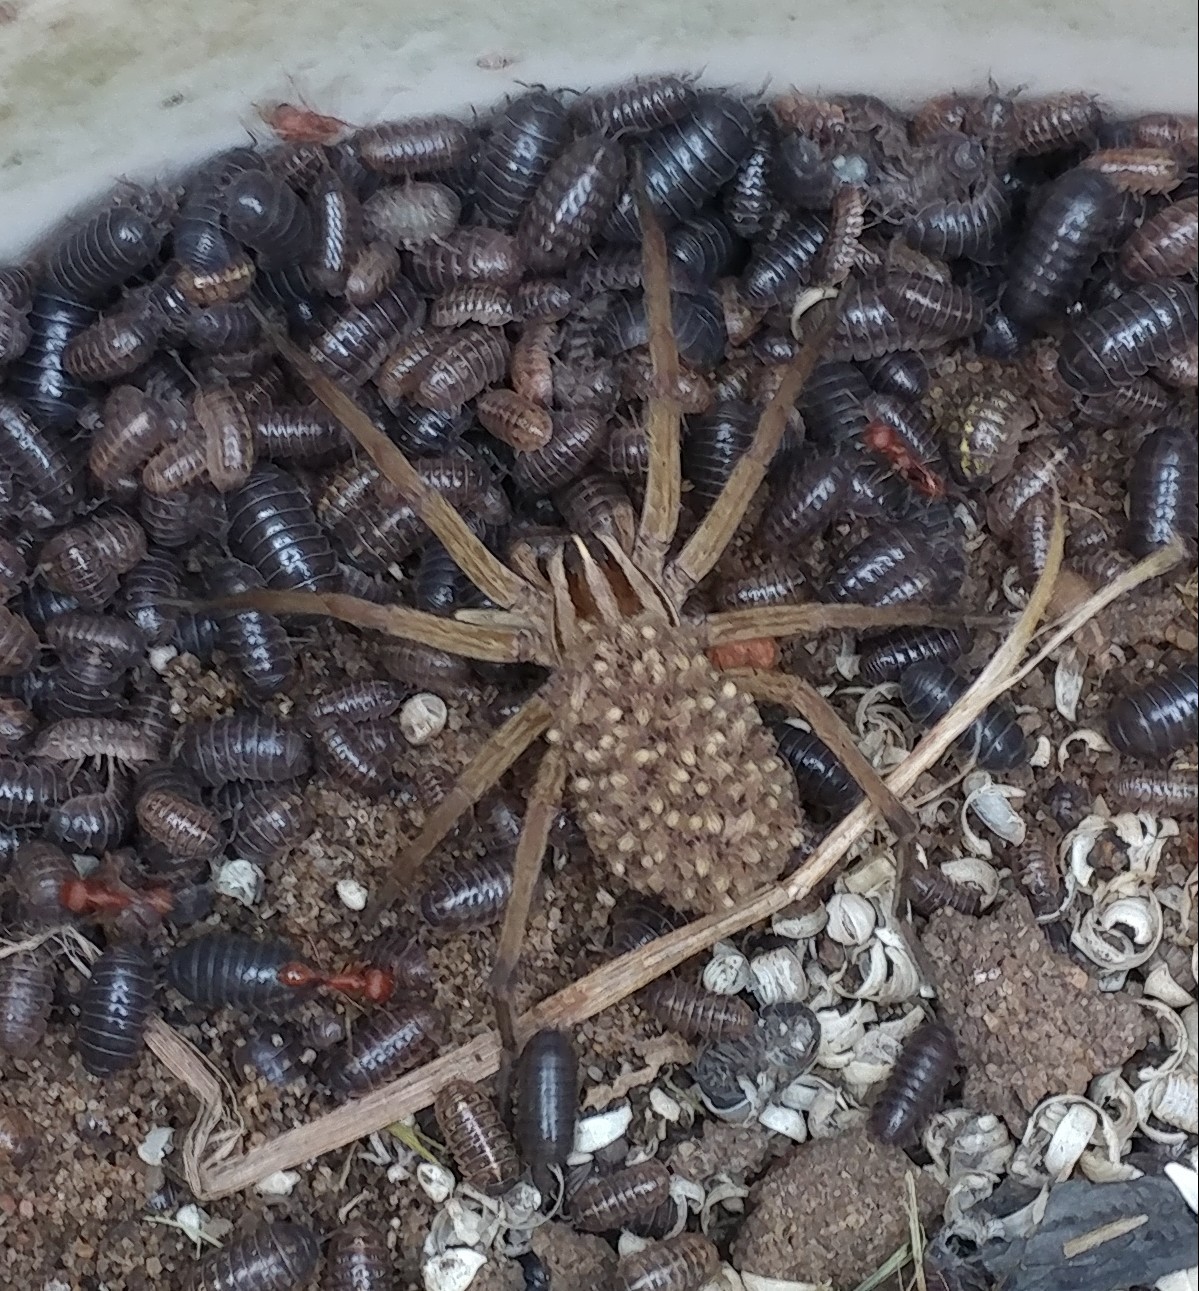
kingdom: Animalia
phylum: Arthropoda
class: Arachnida
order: Araneae
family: Lycosidae
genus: Rabidosa
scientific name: Rabidosa rabida
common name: Rabid wolf spider
